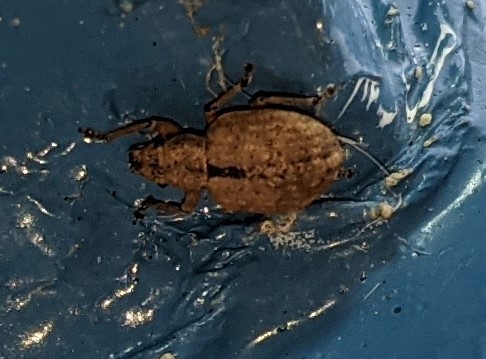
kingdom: Animalia
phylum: Arthropoda
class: Insecta
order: Coleoptera
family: Curculionidae
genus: Strophosoma
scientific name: Strophosoma melanogrammum
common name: Weevil
